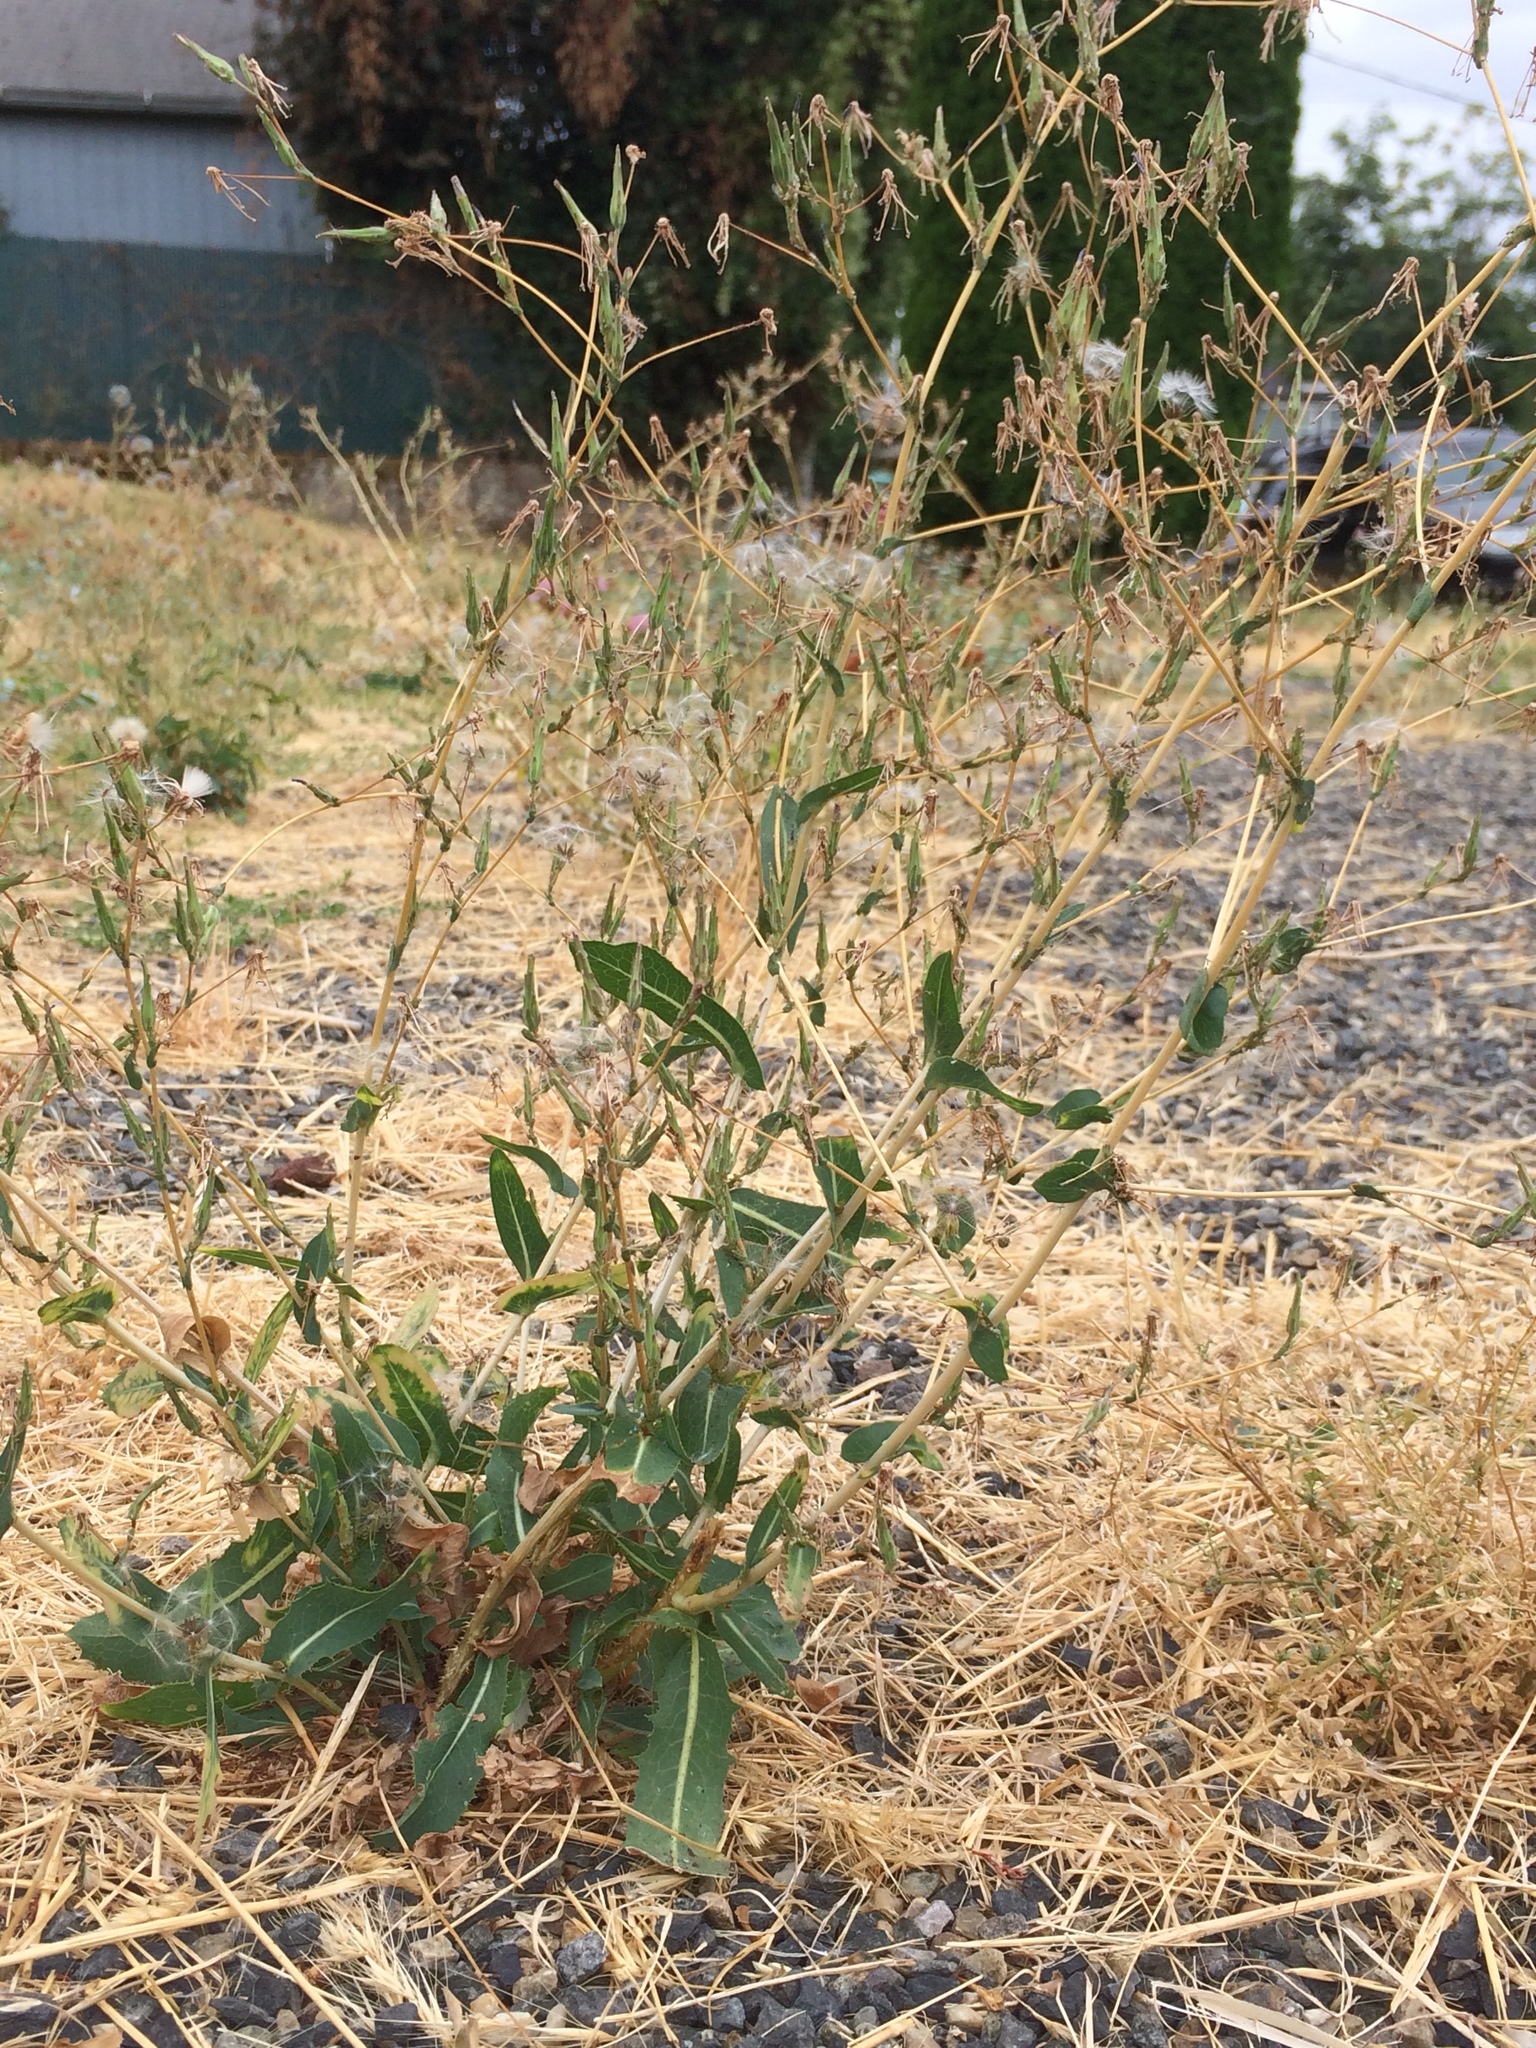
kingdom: Plantae
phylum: Tracheophyta
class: Magnoliopsida
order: Asterales
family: Asteraceae
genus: Lactuca
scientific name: Lactuca serriola
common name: Prickly lettuce
